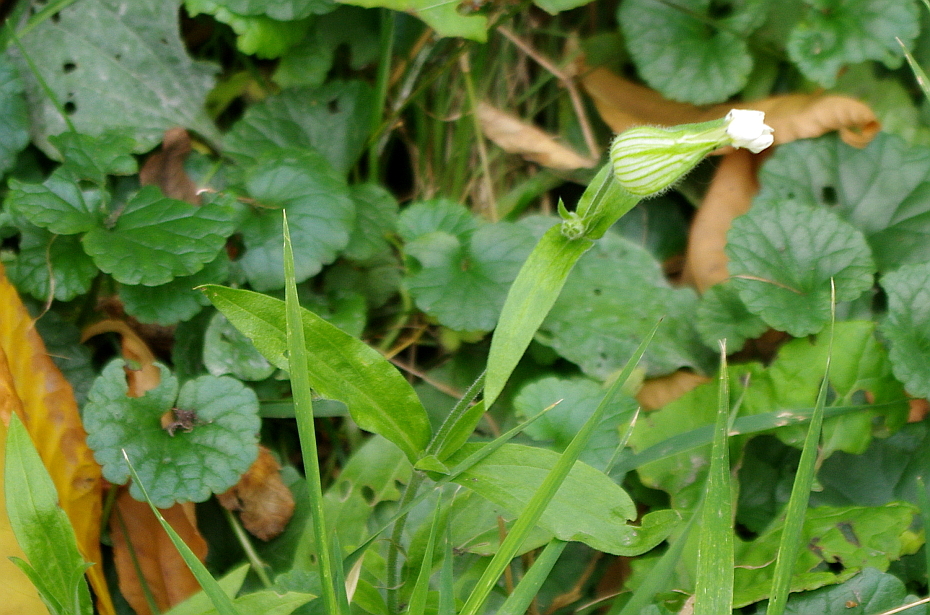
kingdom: Plantae
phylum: Tracheophyta
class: Magnoliopsida
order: Caryophyllales
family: Caryophyllaceae
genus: Silene
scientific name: Silene latifolia
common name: White campion
